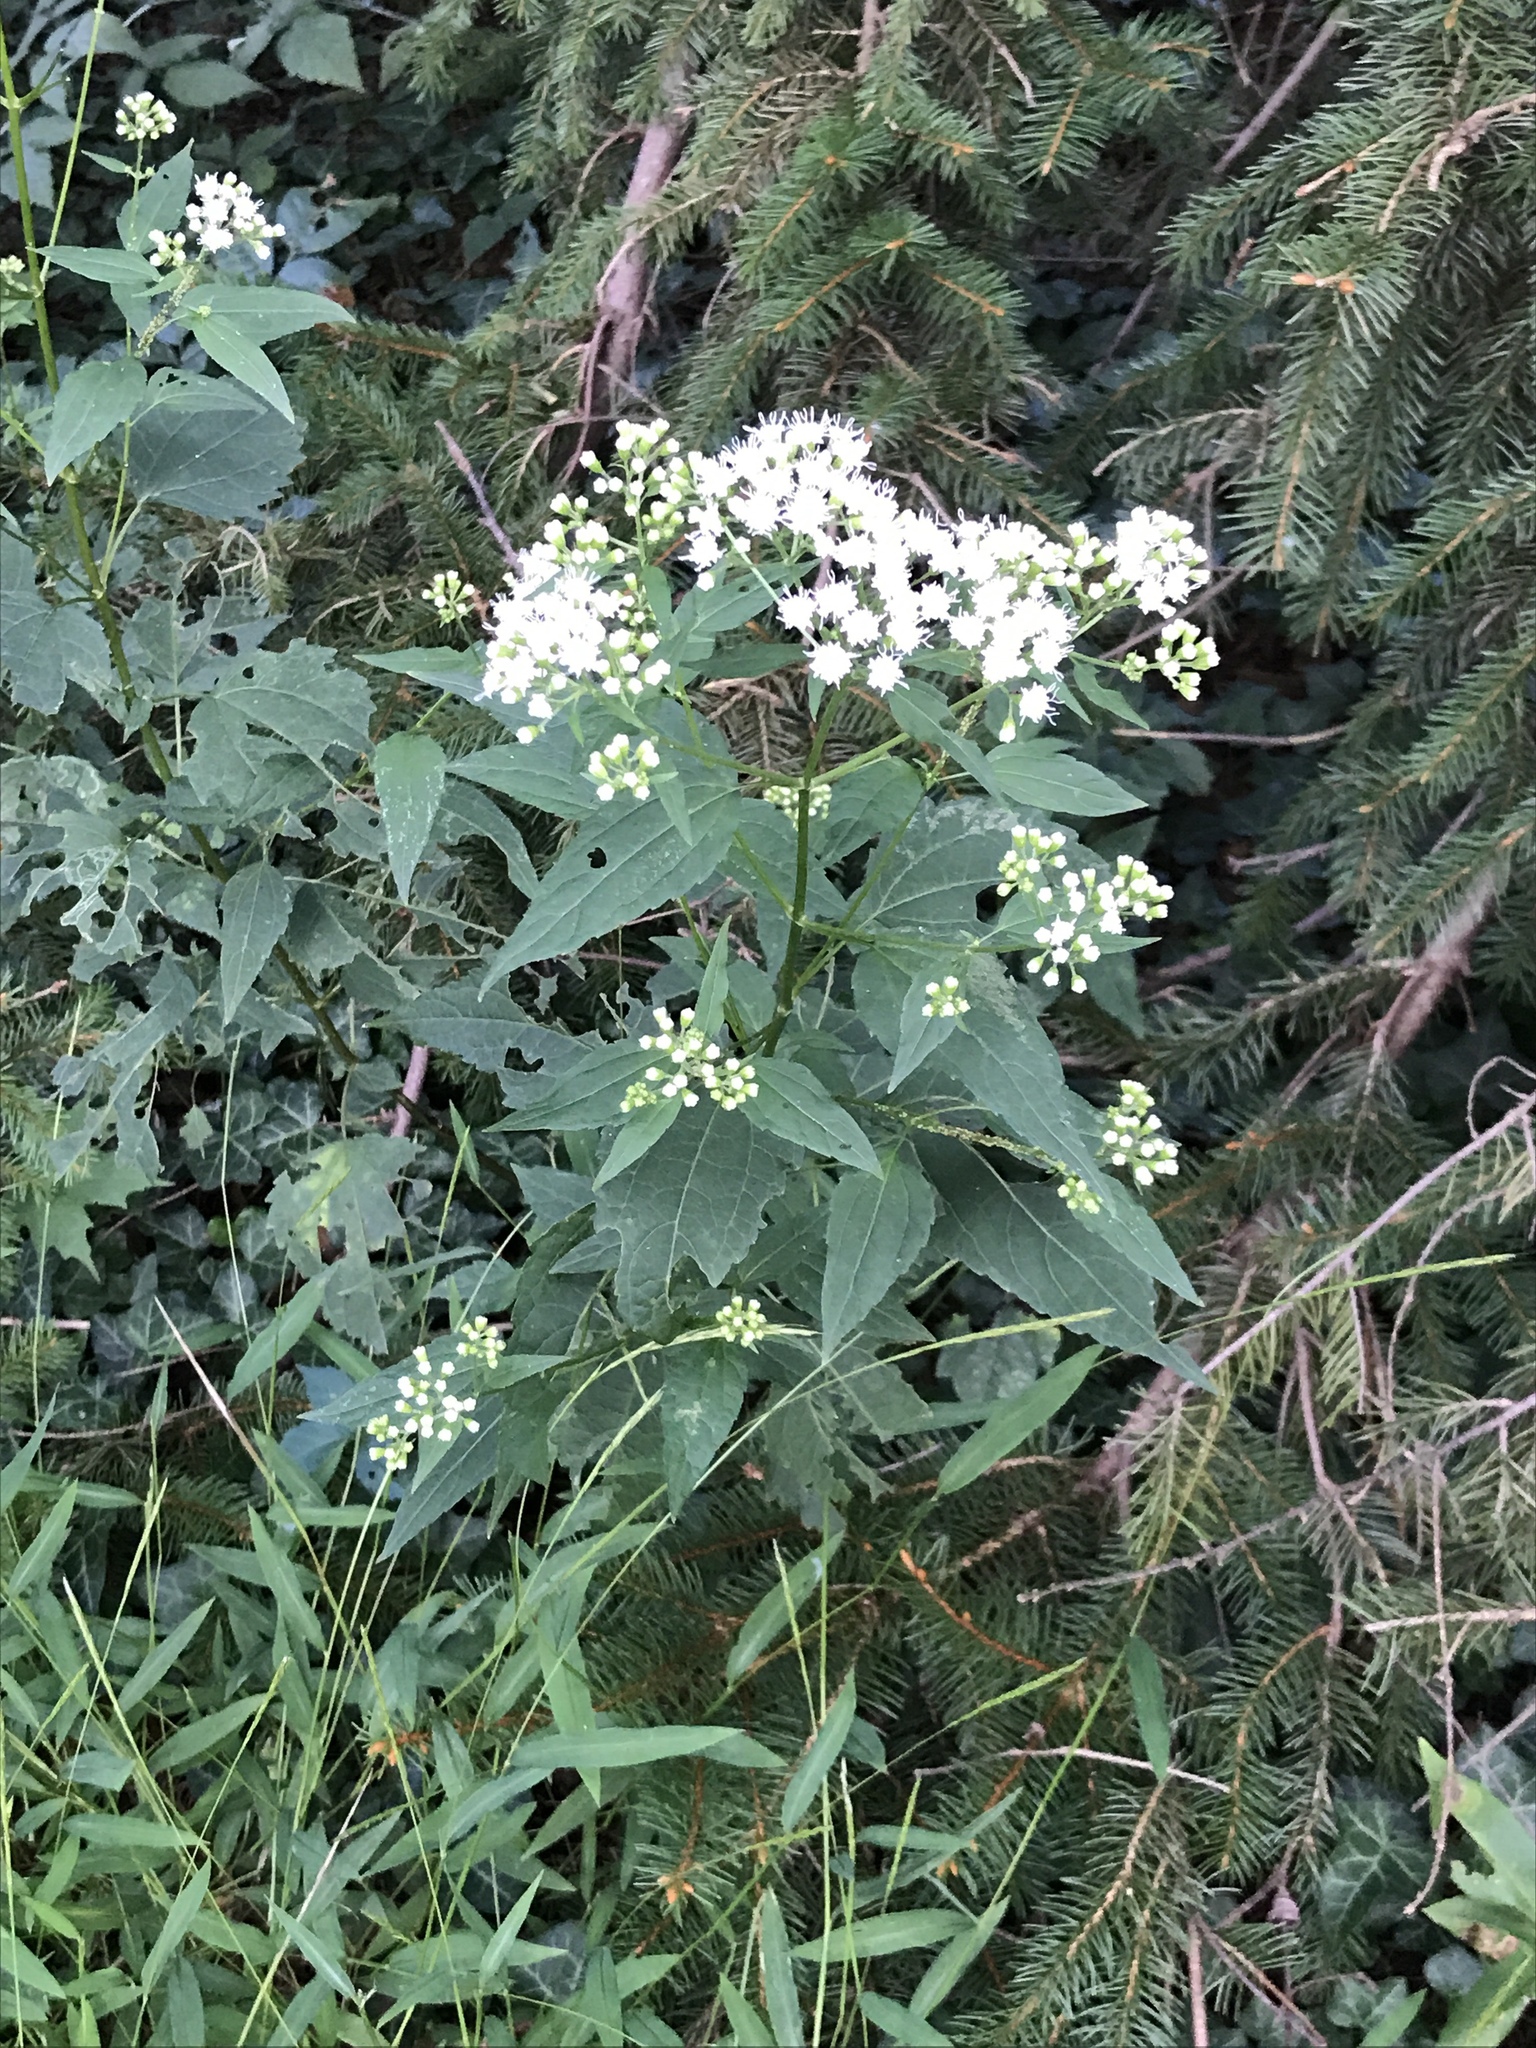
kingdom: Plantae
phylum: Tracheophyta
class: Magnoliopsida
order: Asterales
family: Asteraceae
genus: Ageratina
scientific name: Ageratina altissima
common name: White snakeroot
